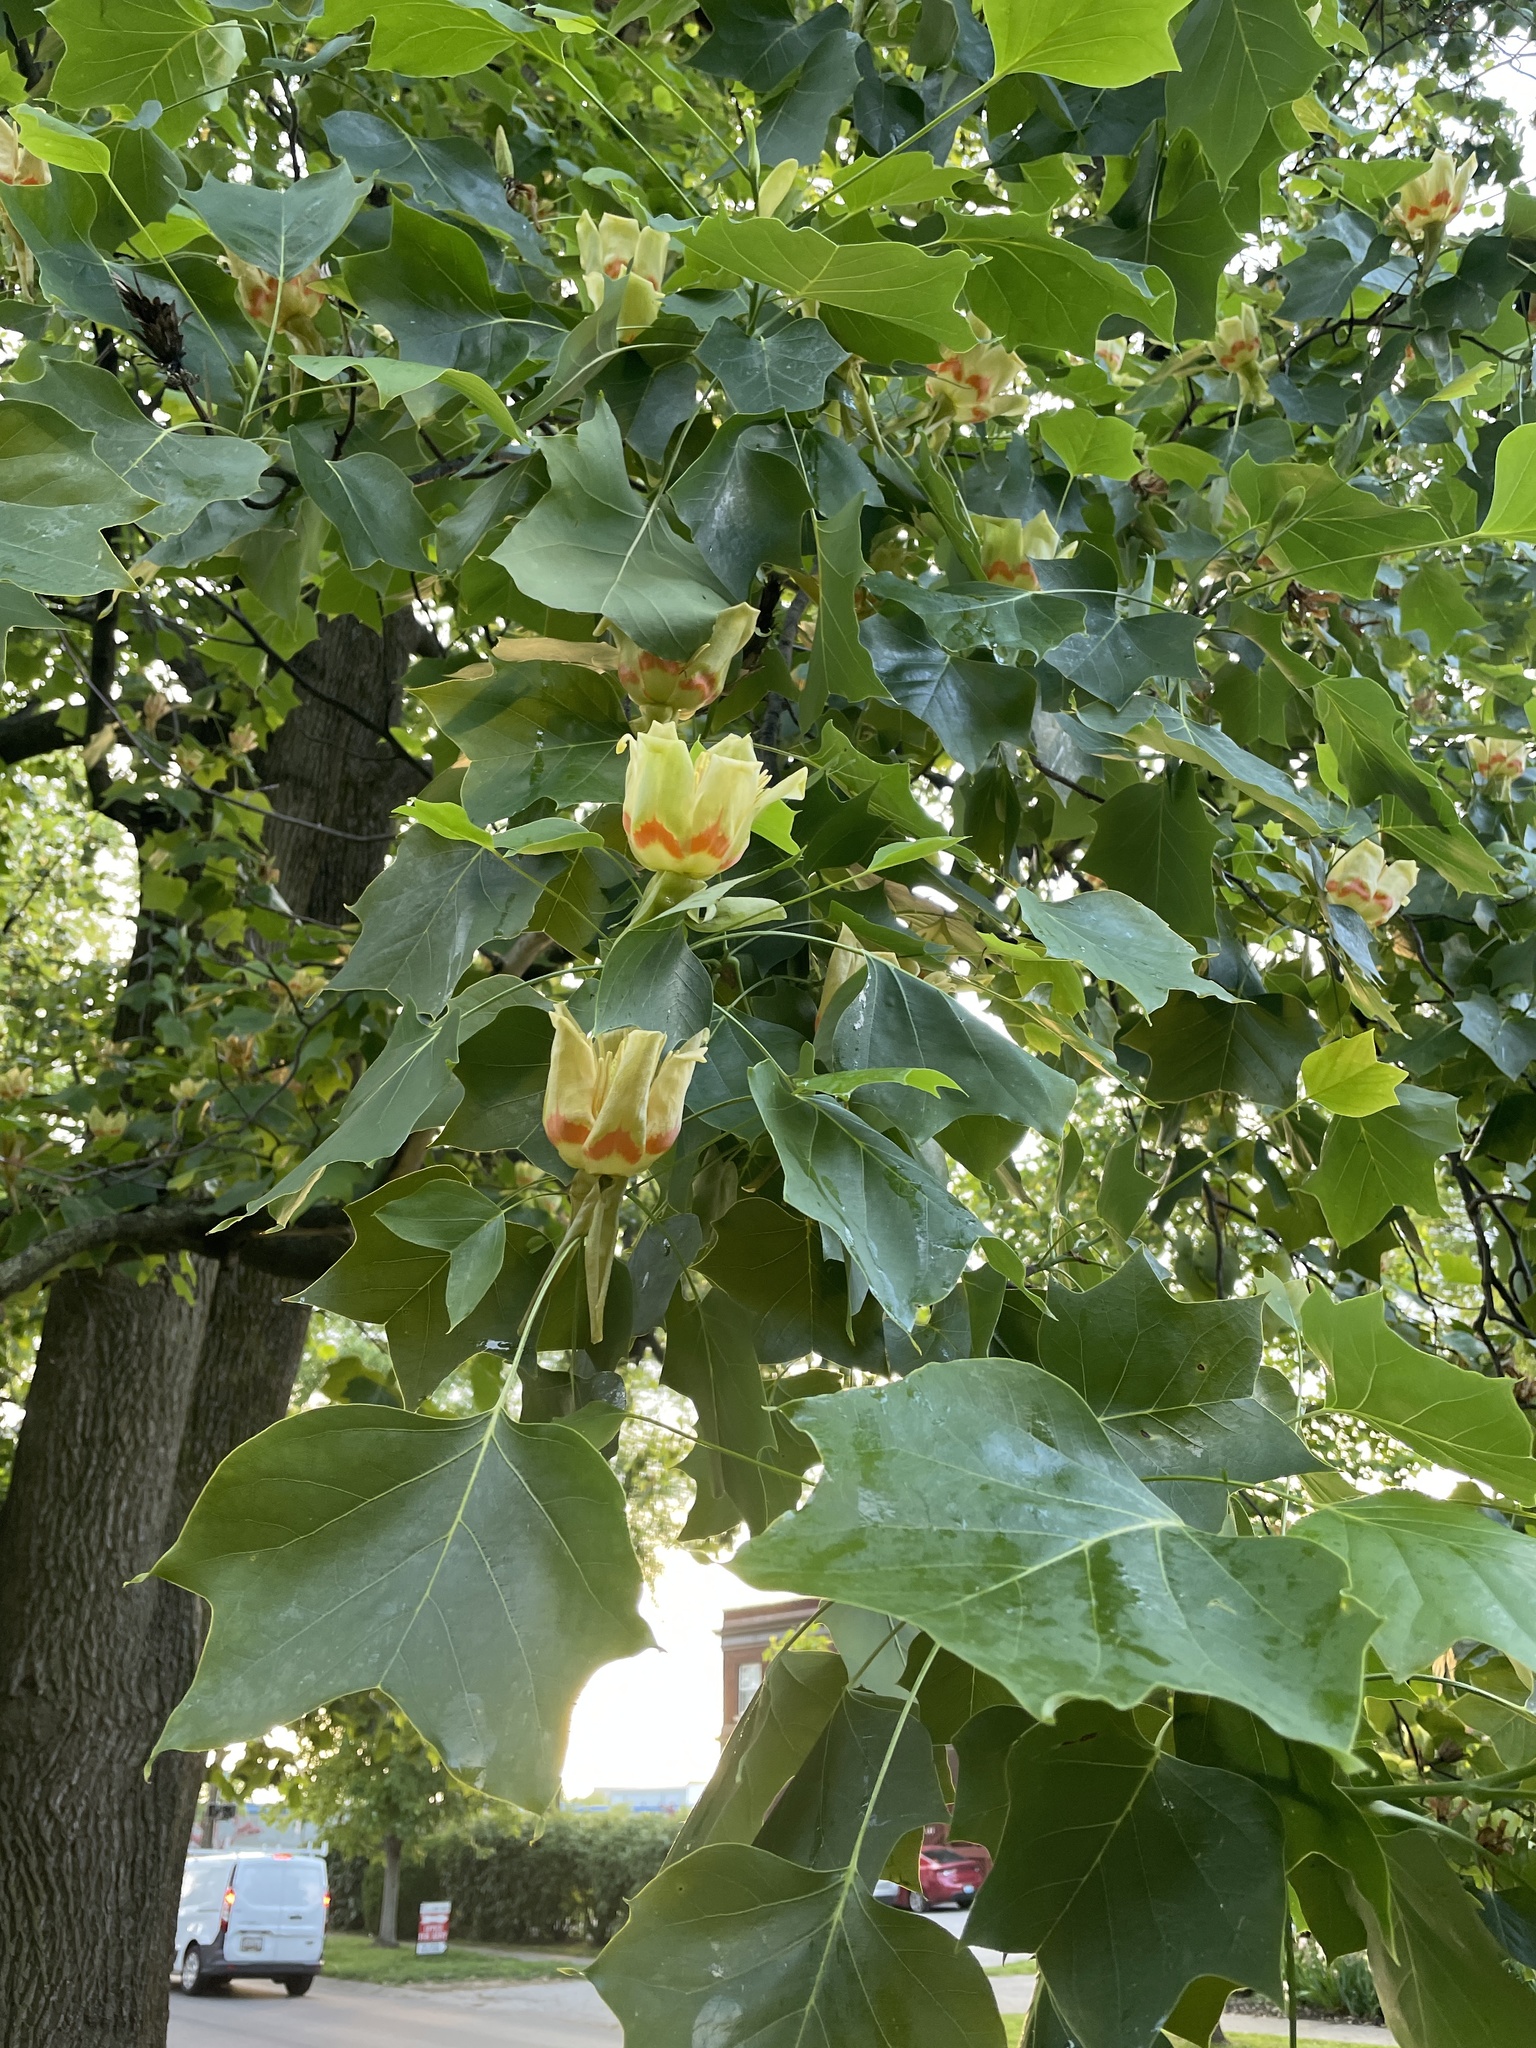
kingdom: Plantae
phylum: Tracheophyta
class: Magnoliopsida
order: Magnoliales
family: Magnoliaceae
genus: Liriodendron
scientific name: Liriodendron tulipifera
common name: Tulip tree
